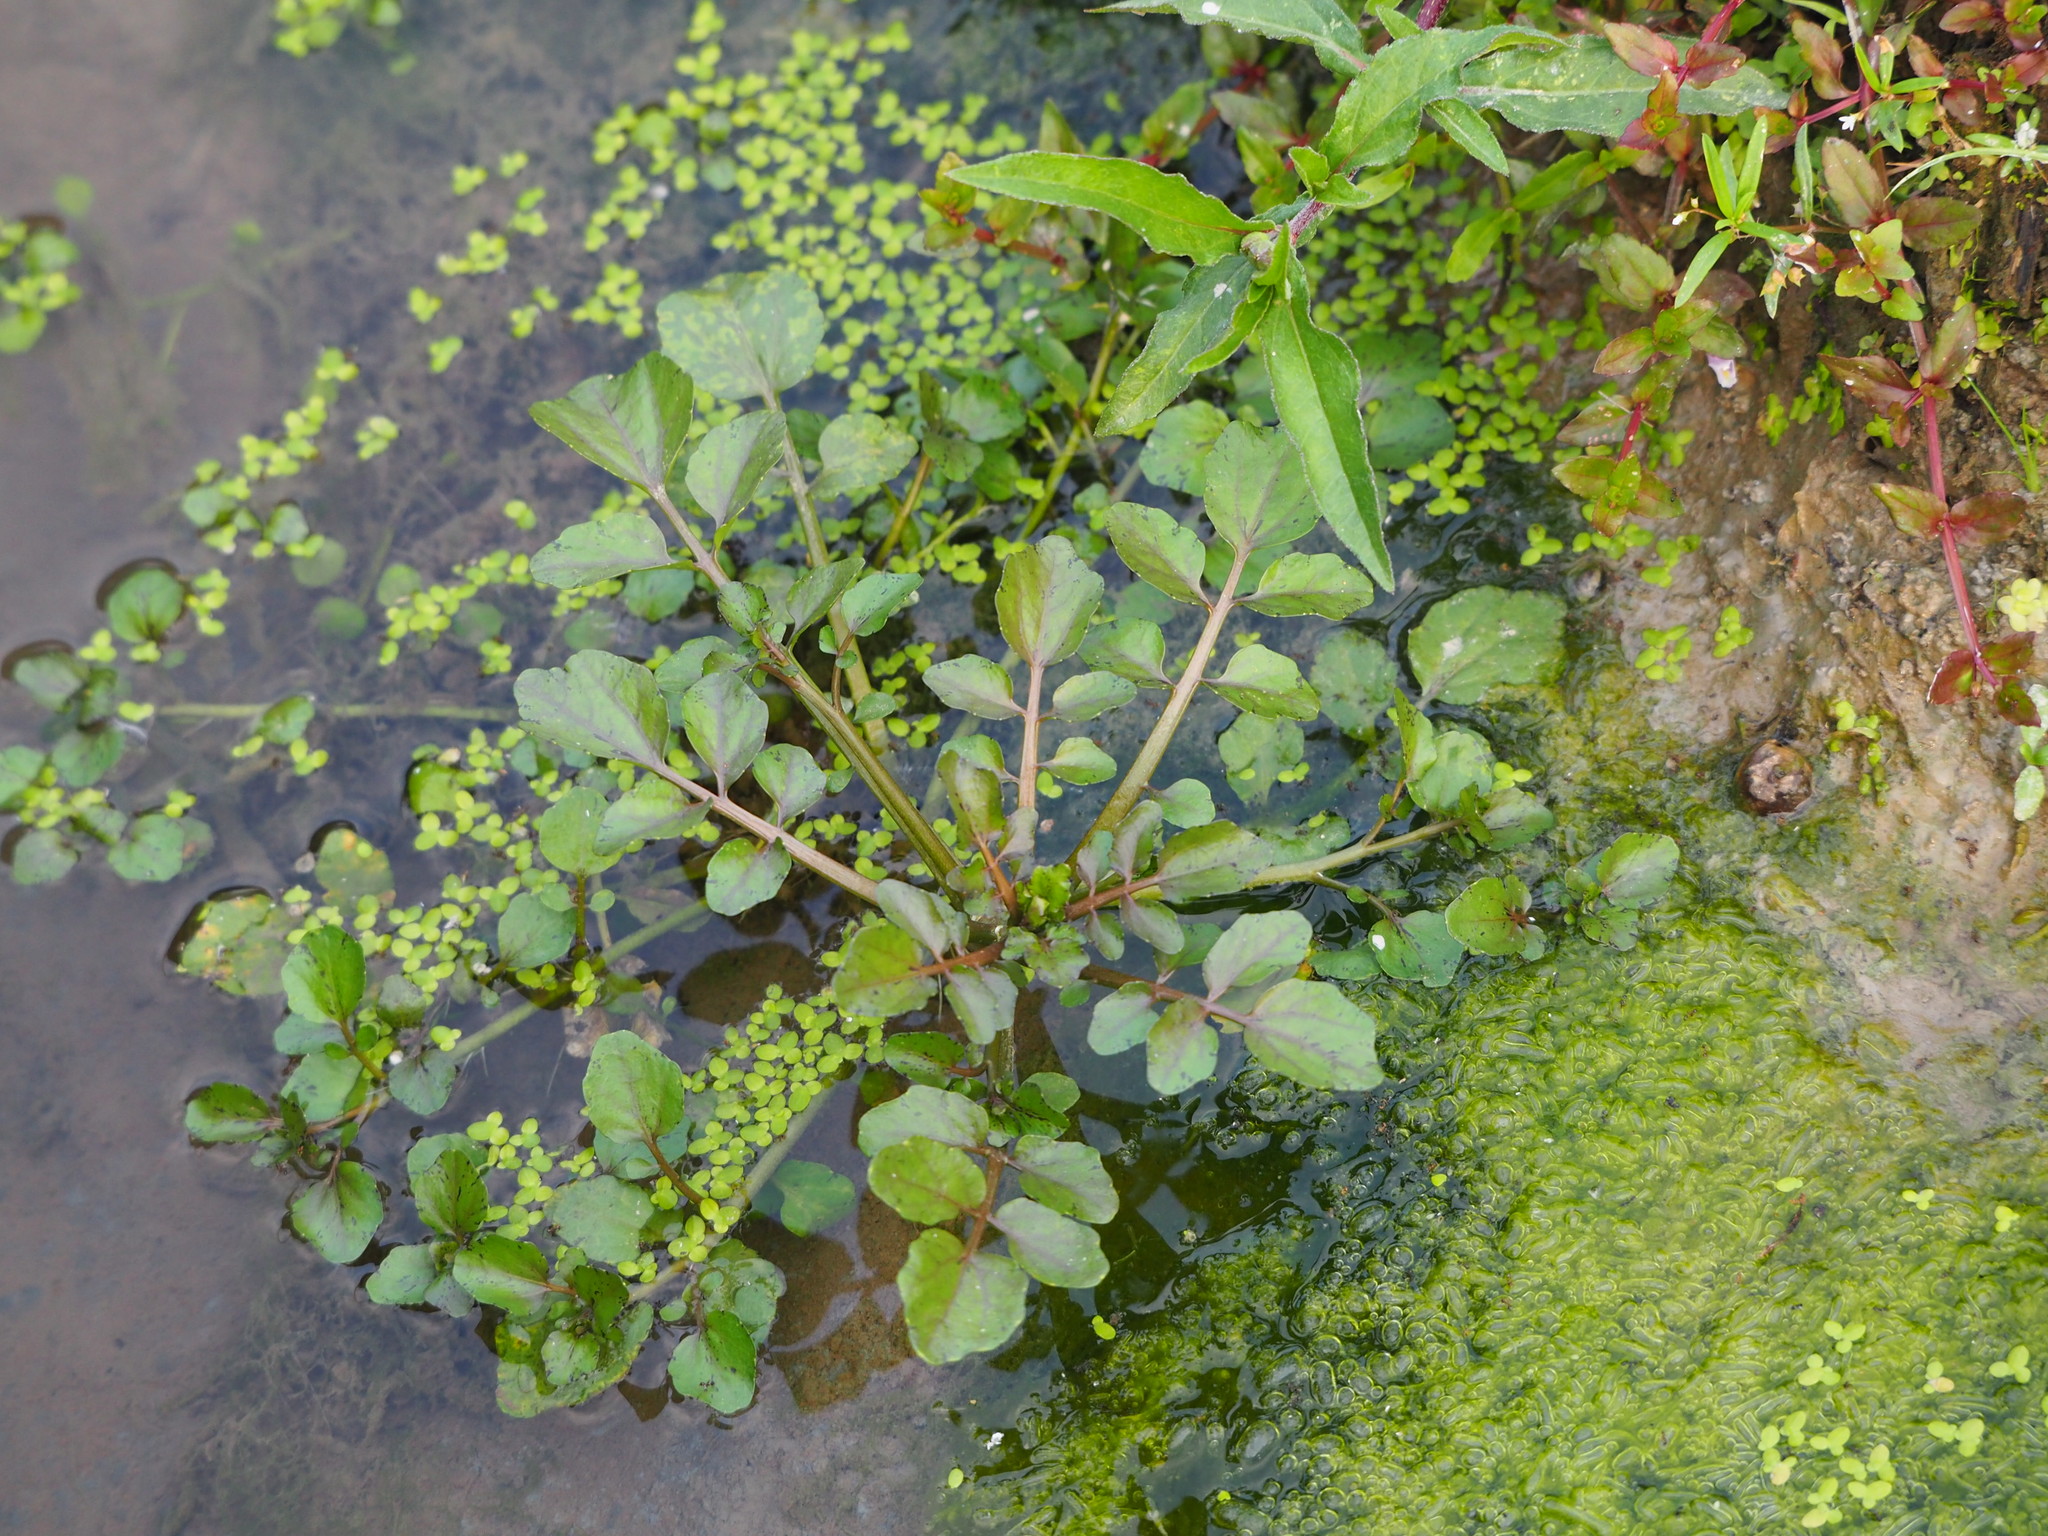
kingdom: Plantae
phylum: Tracheophyta
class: Magnoliopsida
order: Brassicales
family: Brassicaceae
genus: Nasturtium
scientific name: Nasturtium officinale
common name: Watercress
